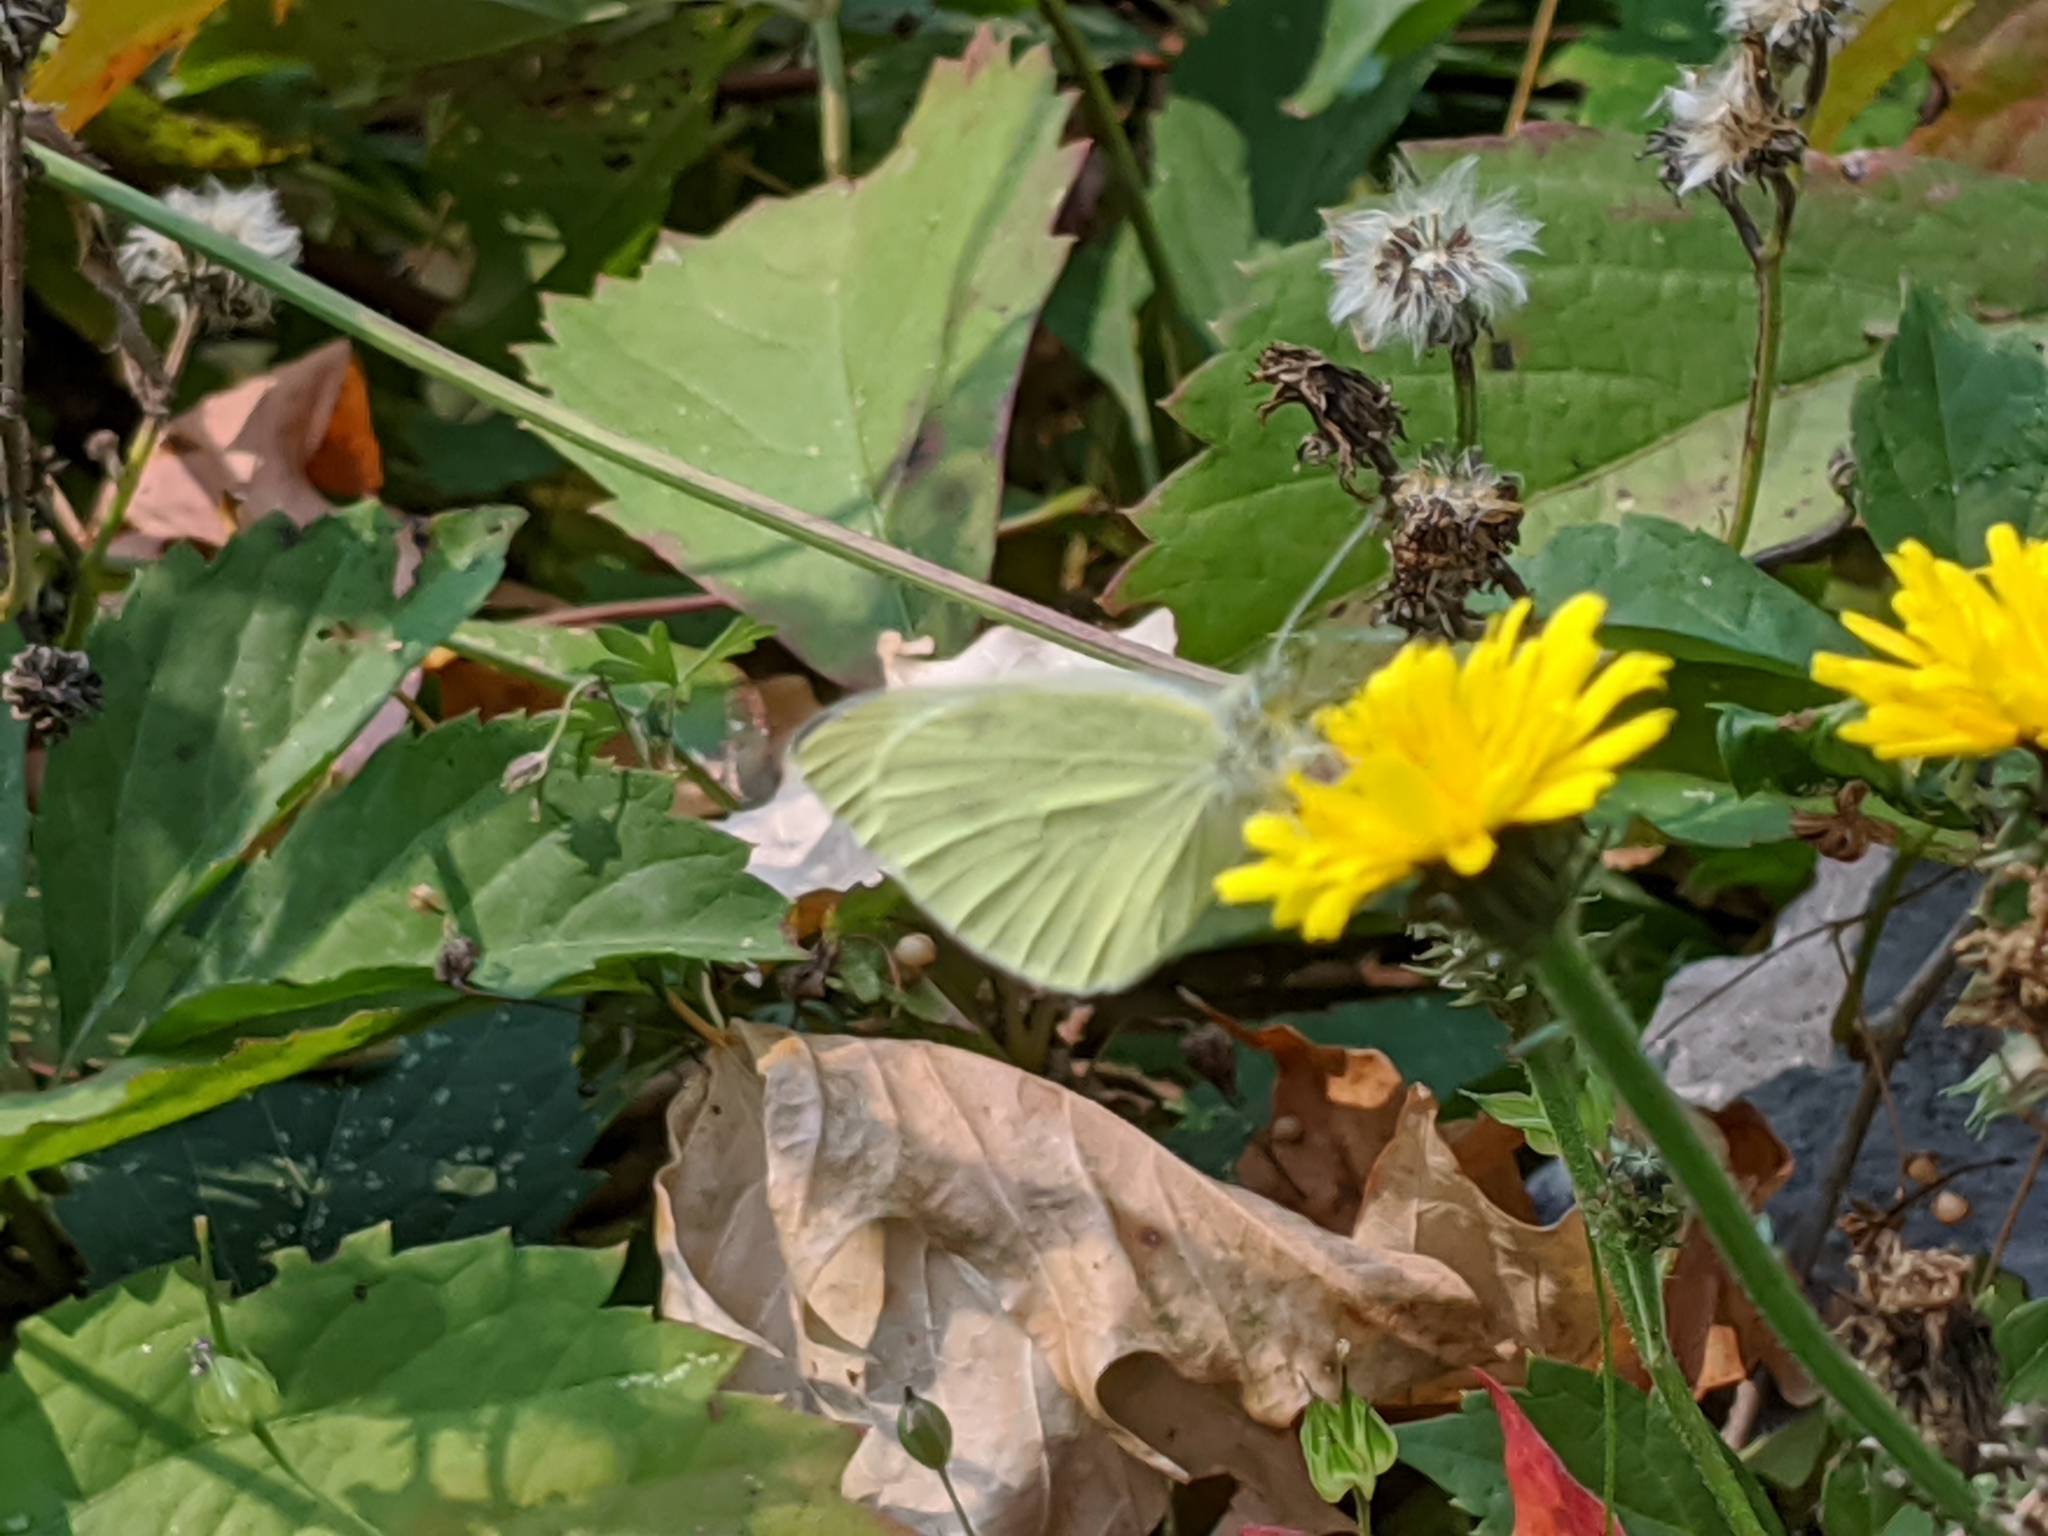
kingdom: Animalia
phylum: Arthropoda
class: Insecta
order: Lepidoptera
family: Pieridae
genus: Pieris
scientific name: Pieris rapae
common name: Small white
